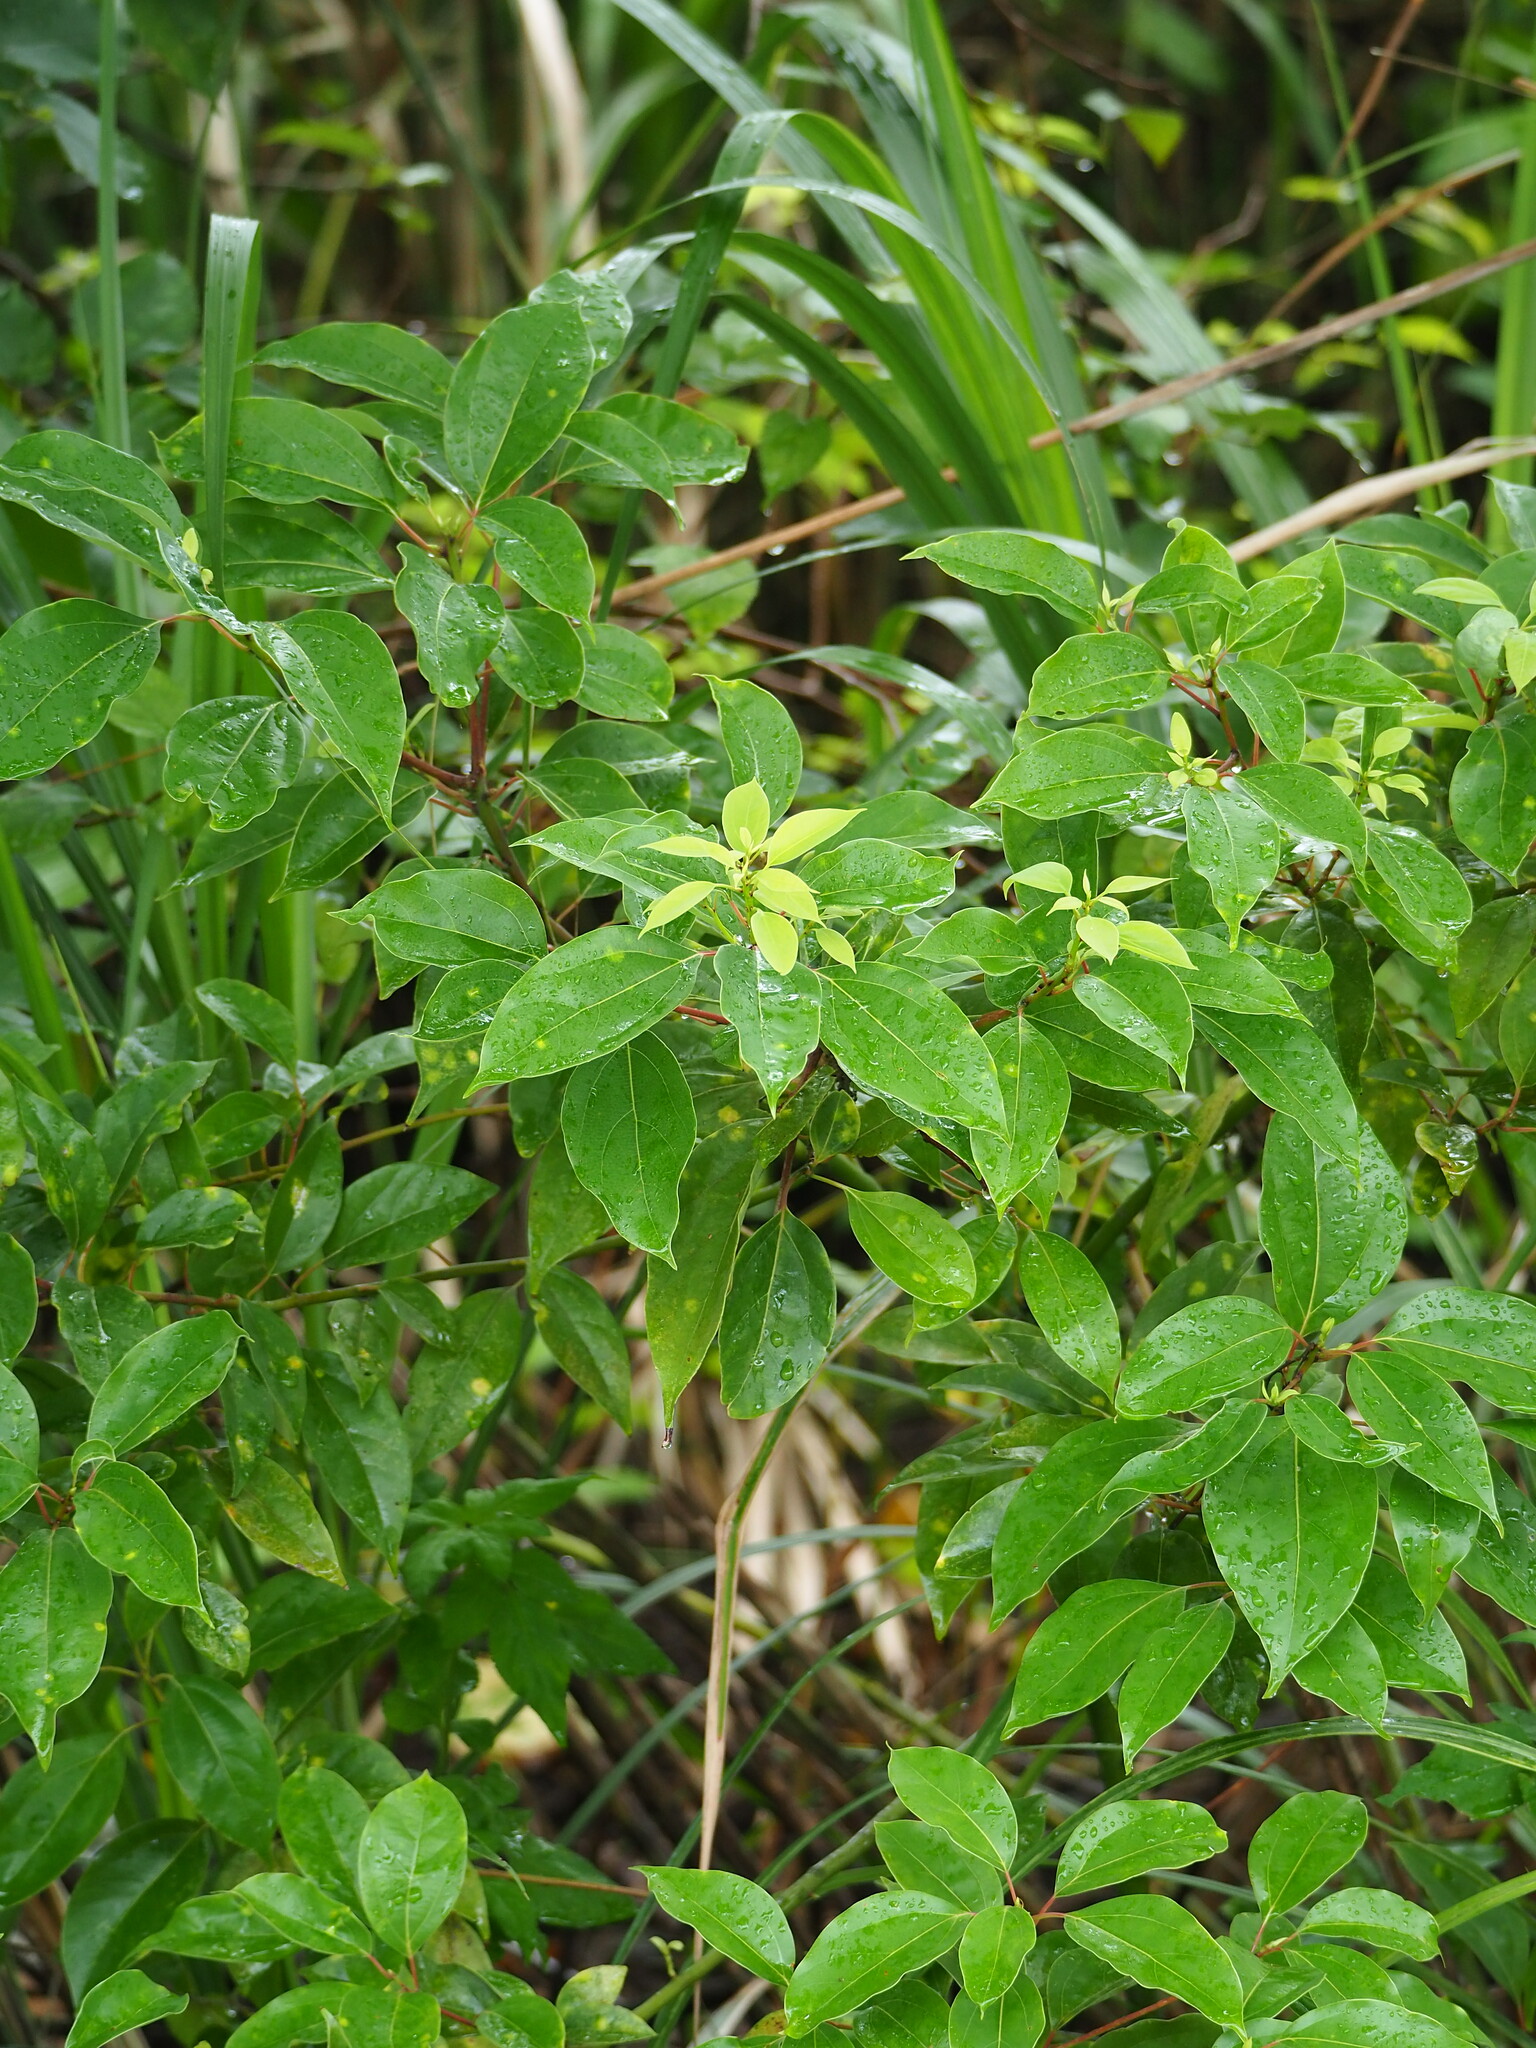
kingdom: Plantae
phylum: Tracheophyta
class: Magnoliopsida
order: Laurales
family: Lauraceae
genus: Cinnamomum
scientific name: Cinnamomum camphora
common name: Camphortree
